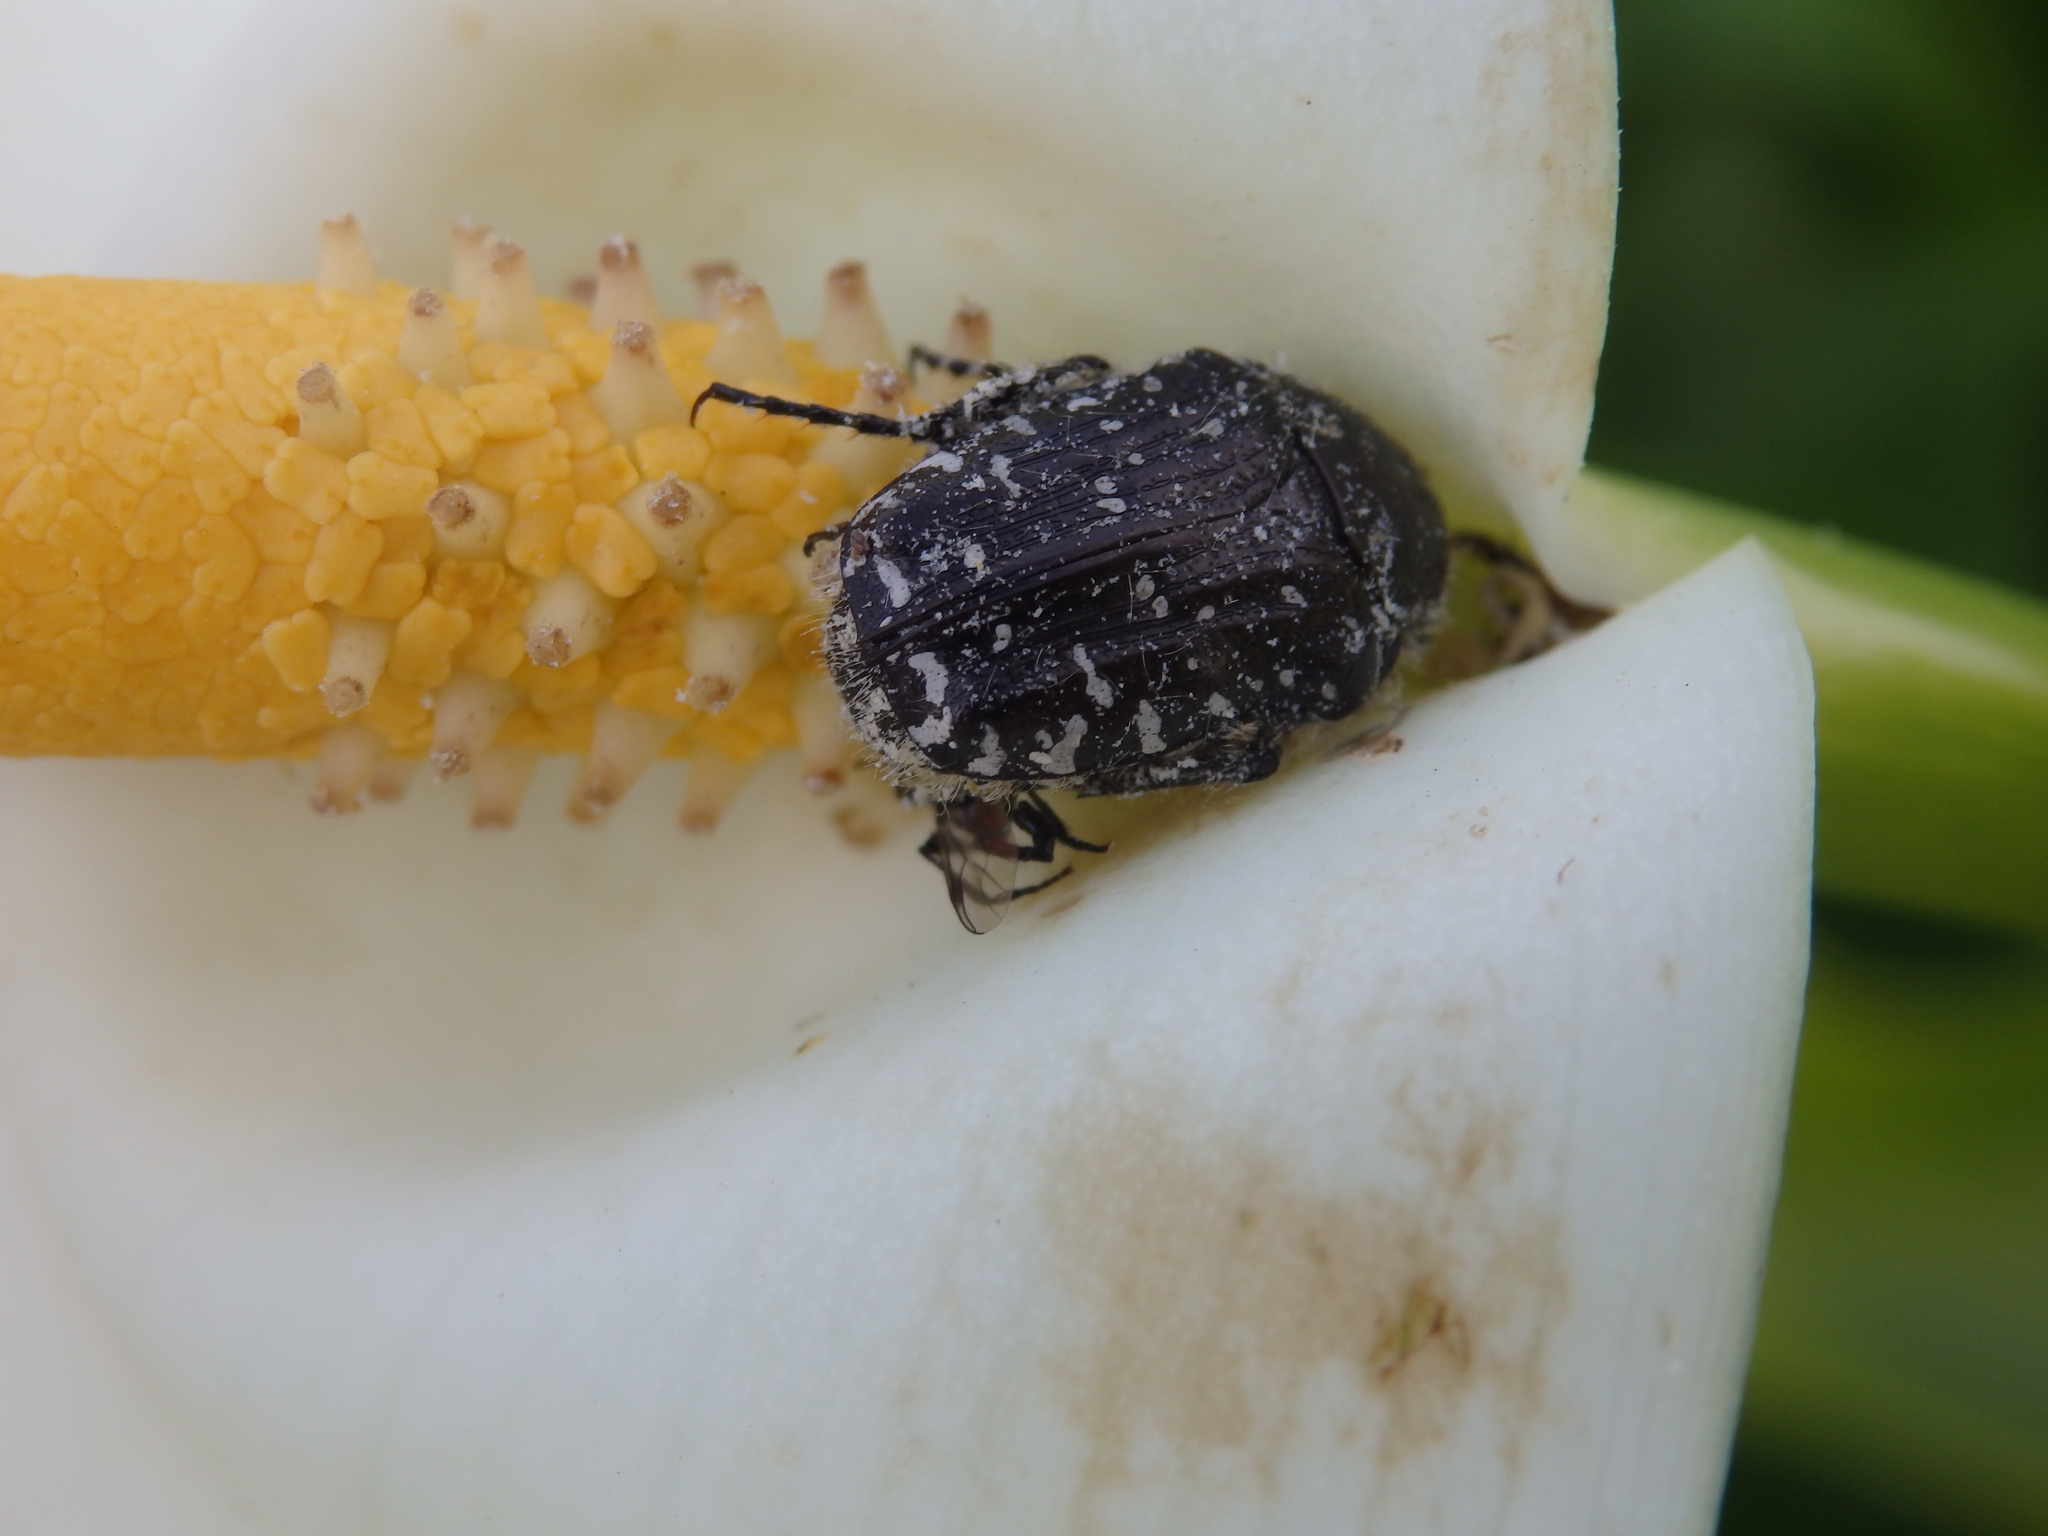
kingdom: Animalia
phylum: Arthropoda
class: Insecta
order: Coleoptera
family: Scarabaeidae
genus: Oxythyrea
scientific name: Oxythyrea funesta
